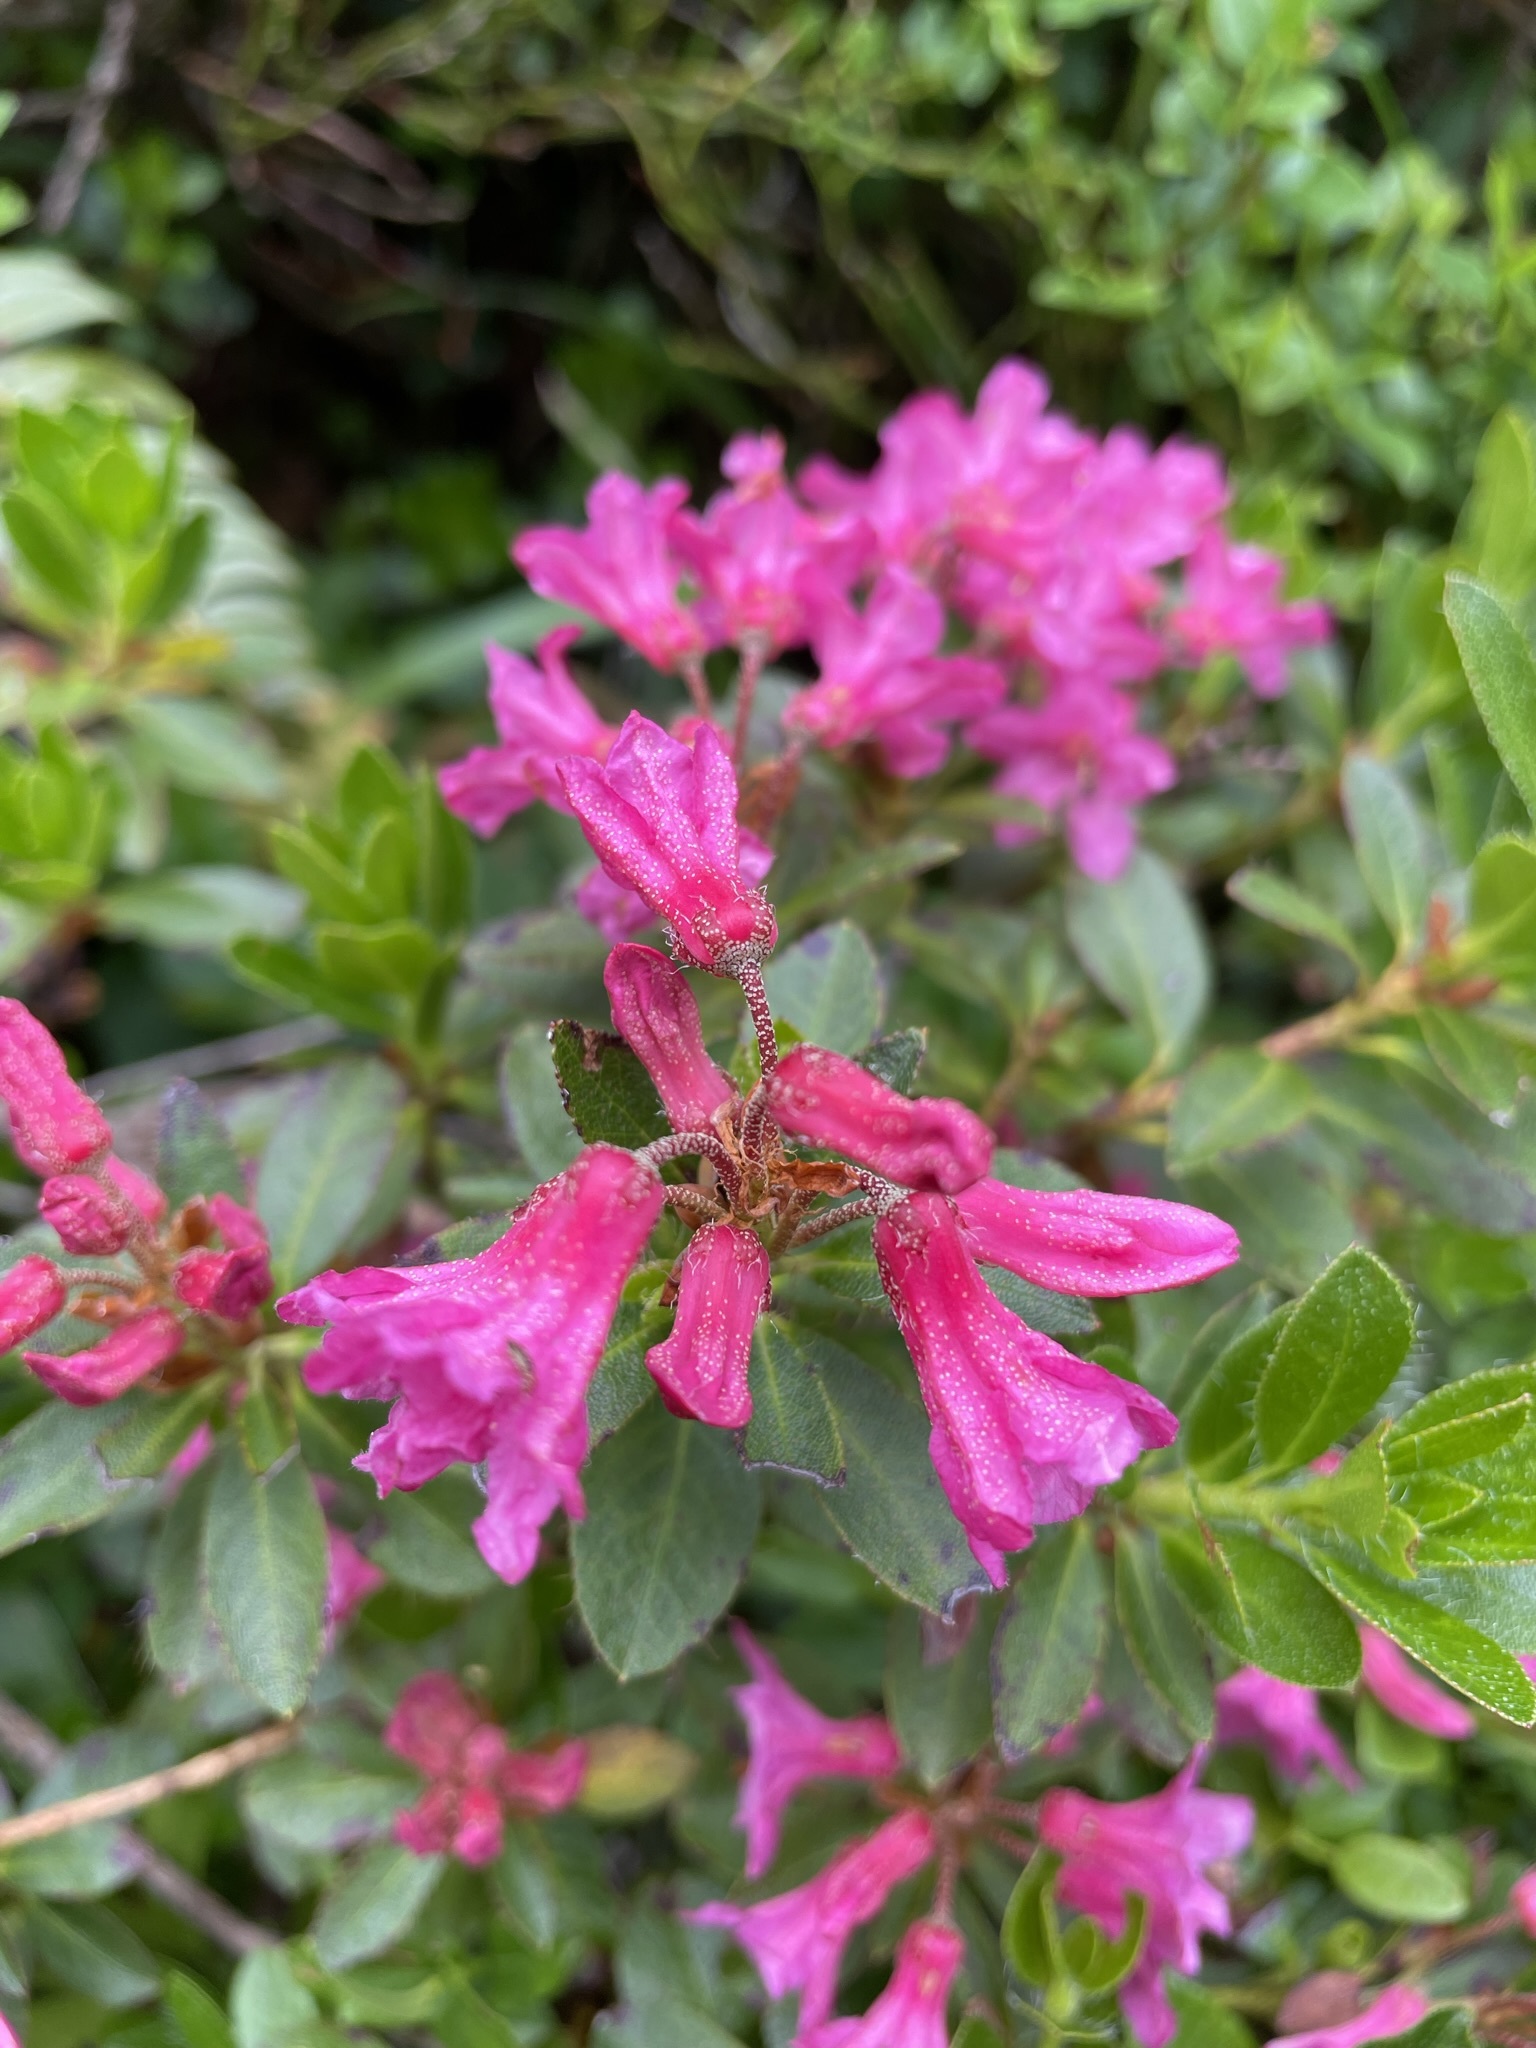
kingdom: Plantae
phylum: Tracheophyta
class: Magnoliopsida
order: Ericales
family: Ericaceae
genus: Rhododendron
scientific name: Rhododendron hirsutum
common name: Hairy alpenrose
